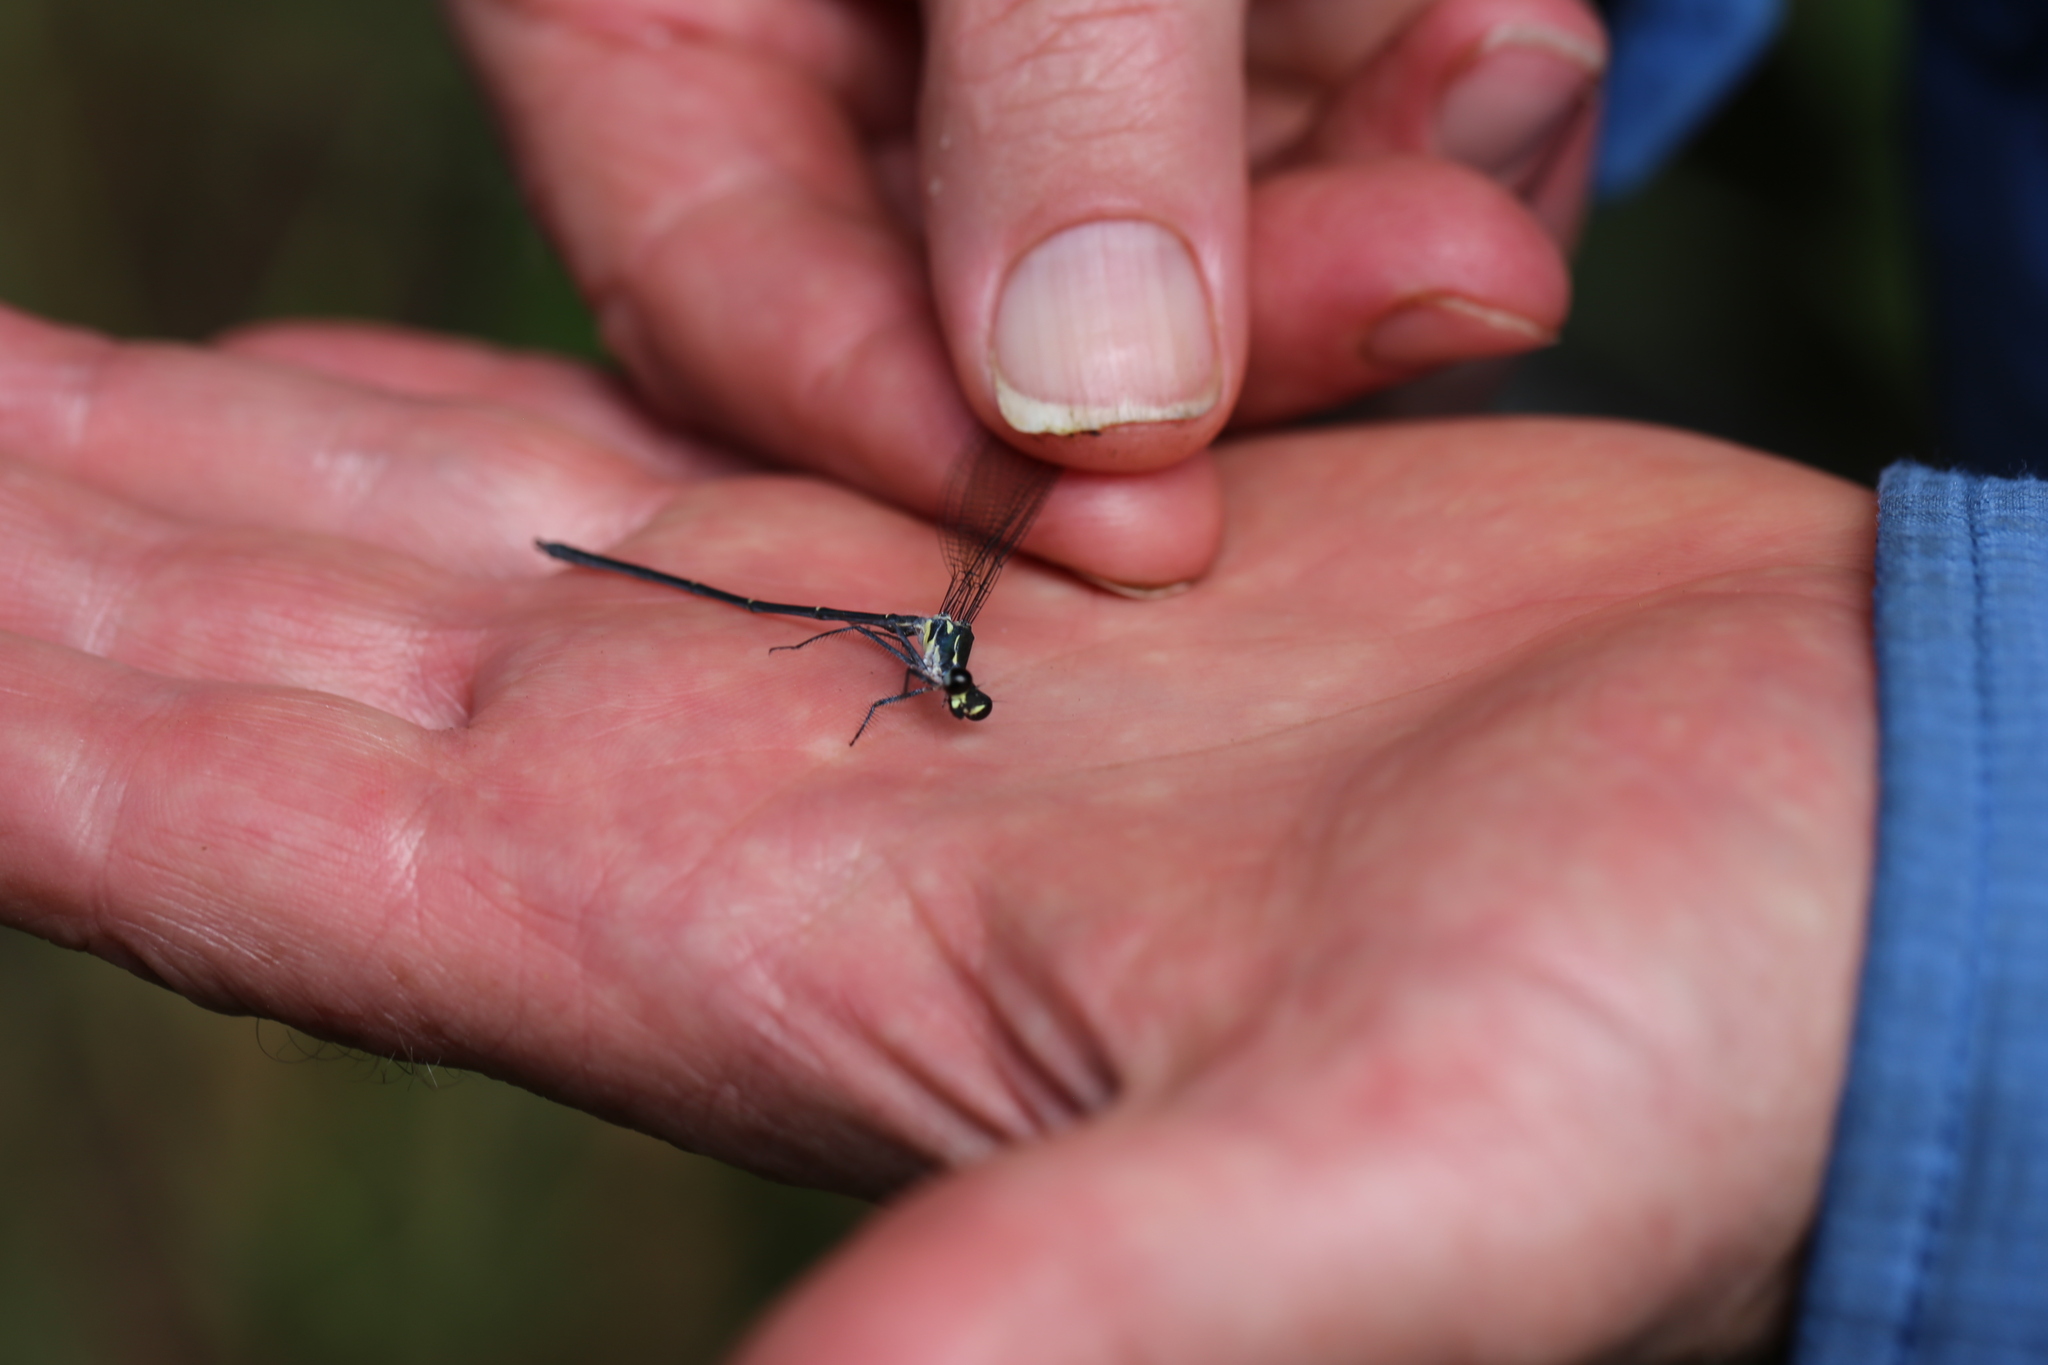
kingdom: Animalia
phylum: Arthropoda
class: Insecta
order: Odonata
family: Argiolestidae
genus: Austroargiolestes
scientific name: Austroargiolestes icteromelas
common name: Common flatwing
